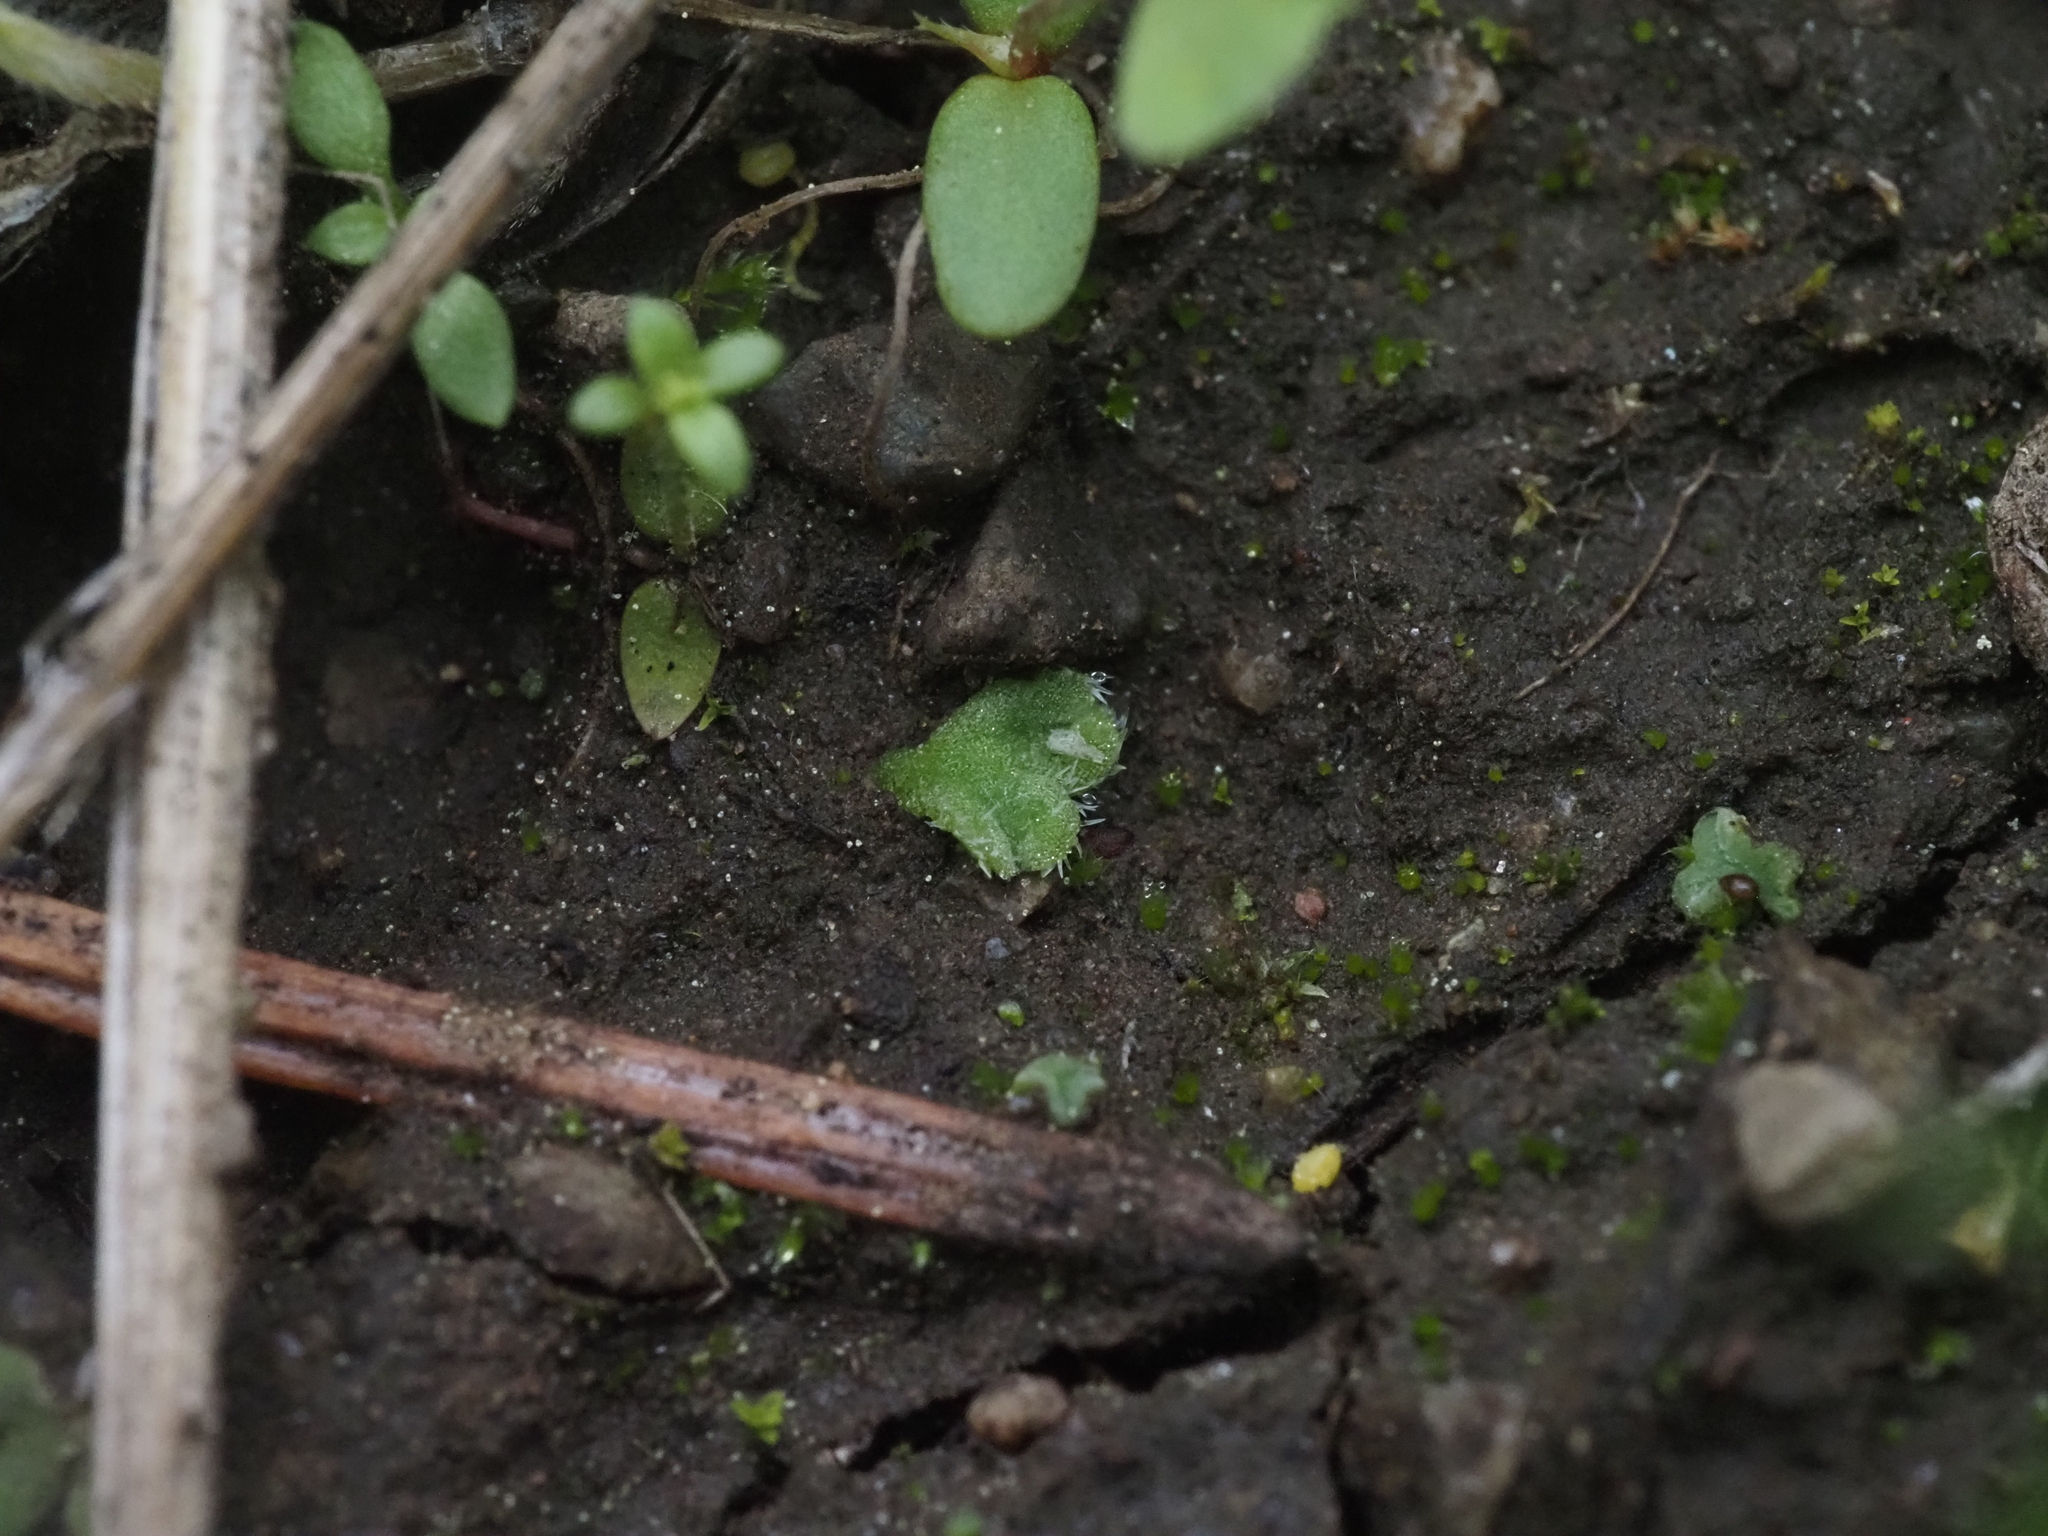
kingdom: Plantae
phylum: Marchantiophyta
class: Marchantiopsida
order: Marchantiales
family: Ricciaceae
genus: Riccia
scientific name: Riccia trichocarpa
